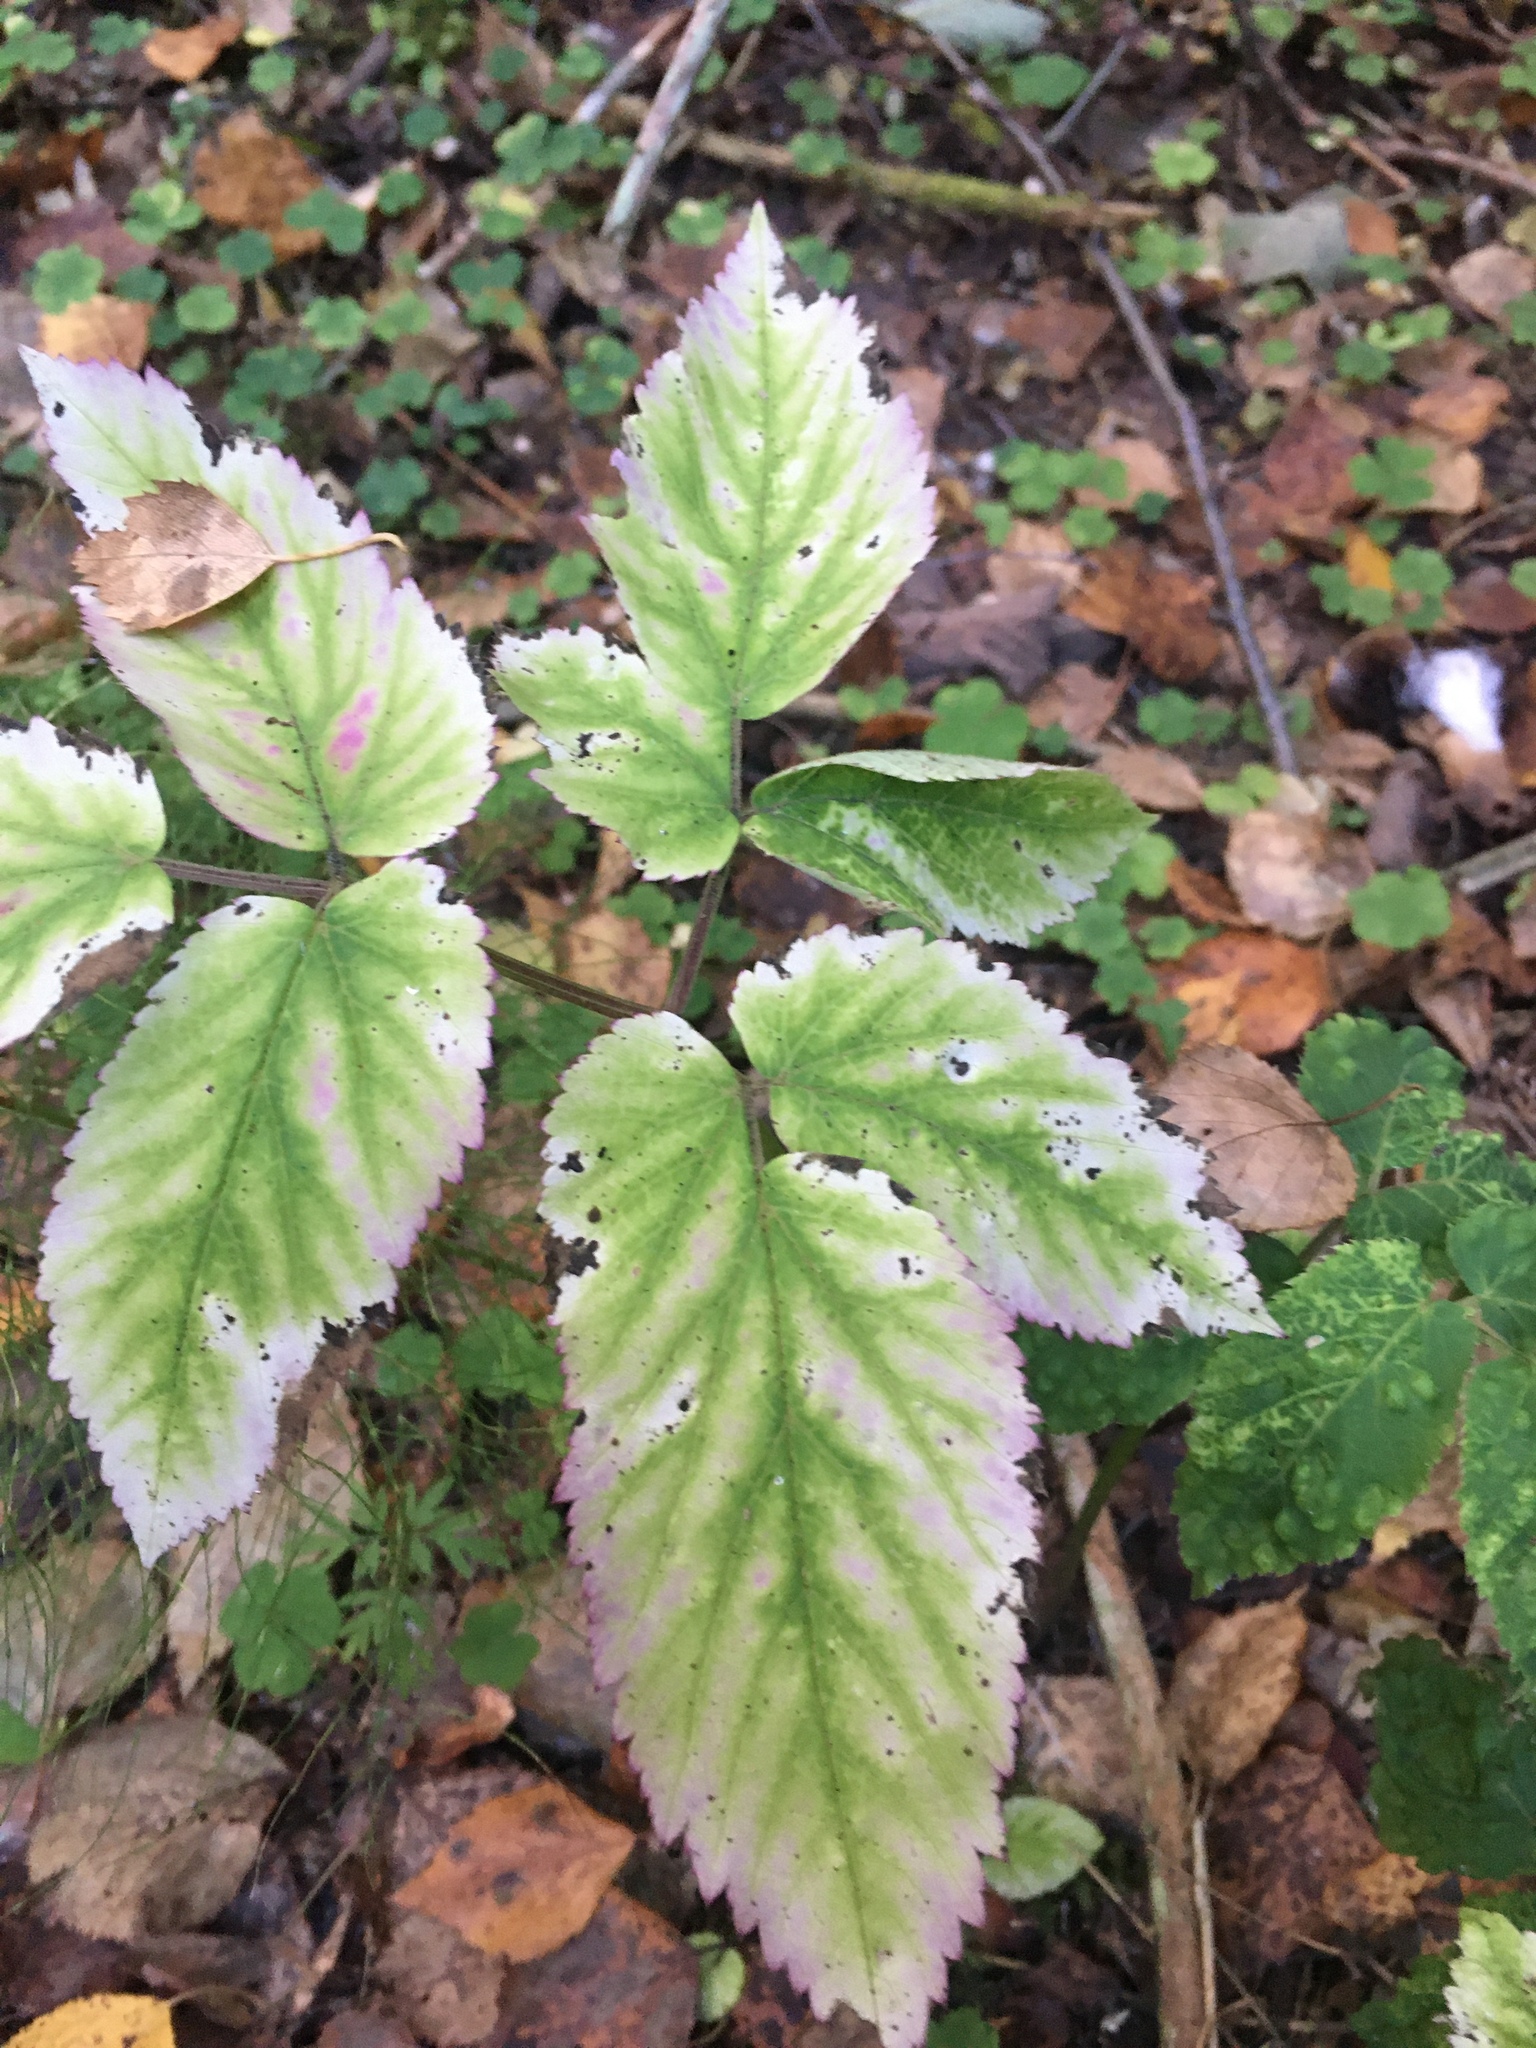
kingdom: Plantae
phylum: Tracheophyta
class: Magnoliopsida
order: Apiales
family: Apiaceae
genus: Aegopodium
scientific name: Aegopodium podagraria
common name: Ground-elder
